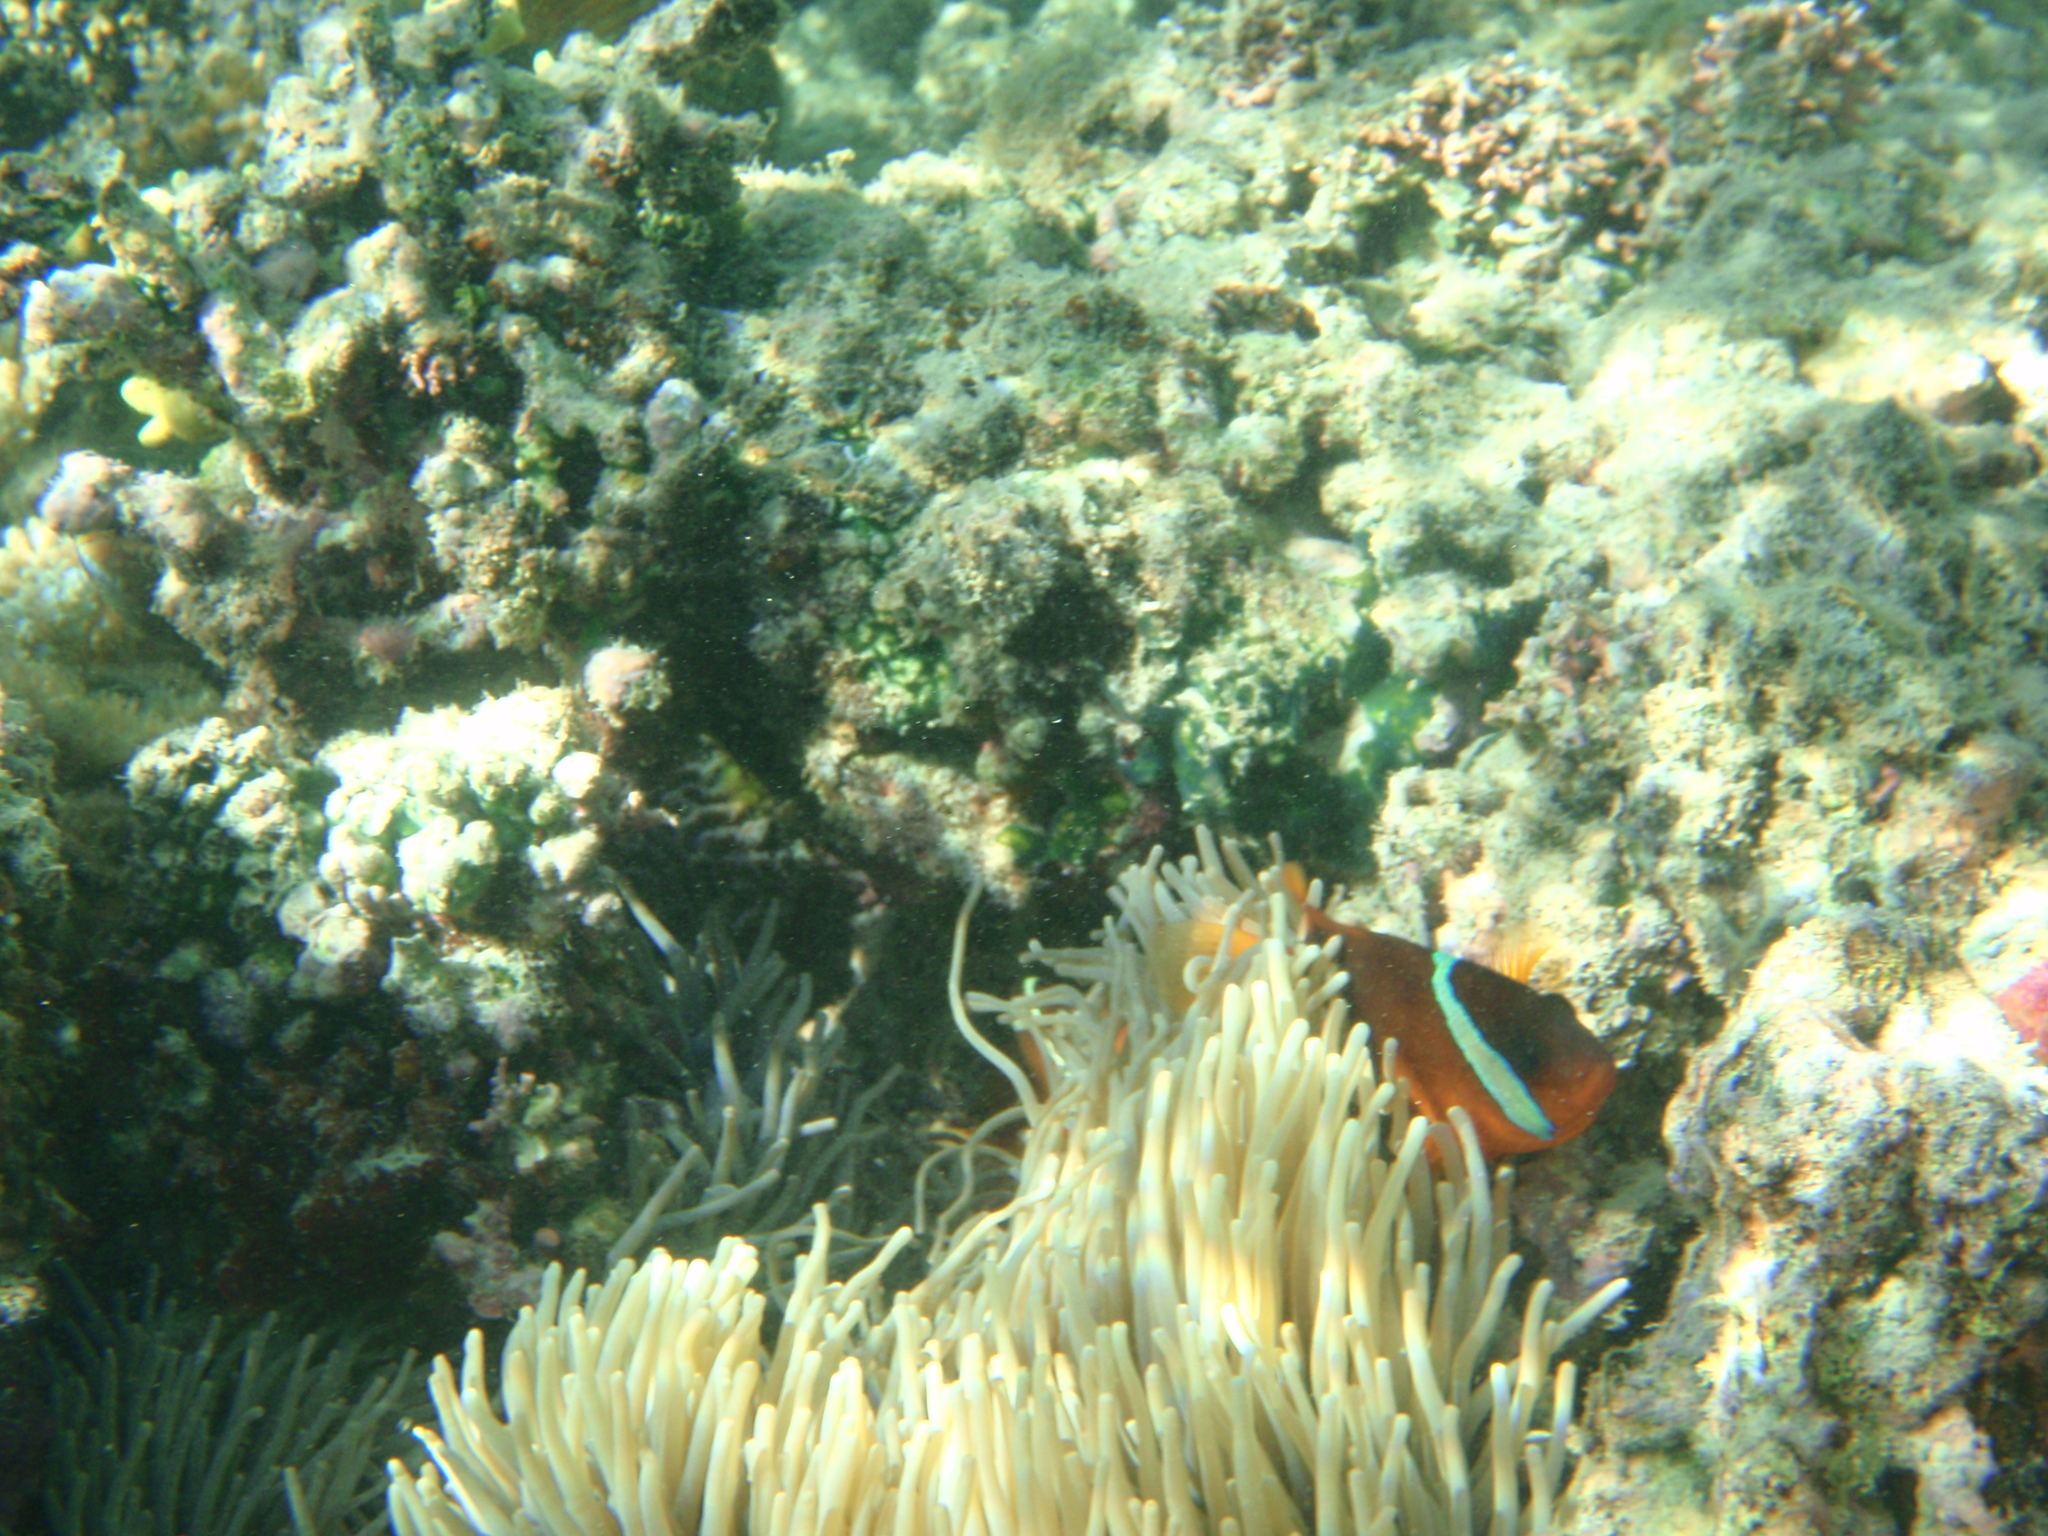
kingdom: Animalia
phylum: Chordata
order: Perciformes
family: Pomacentridae
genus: Amphiprion
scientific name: Amphiprion barberi
